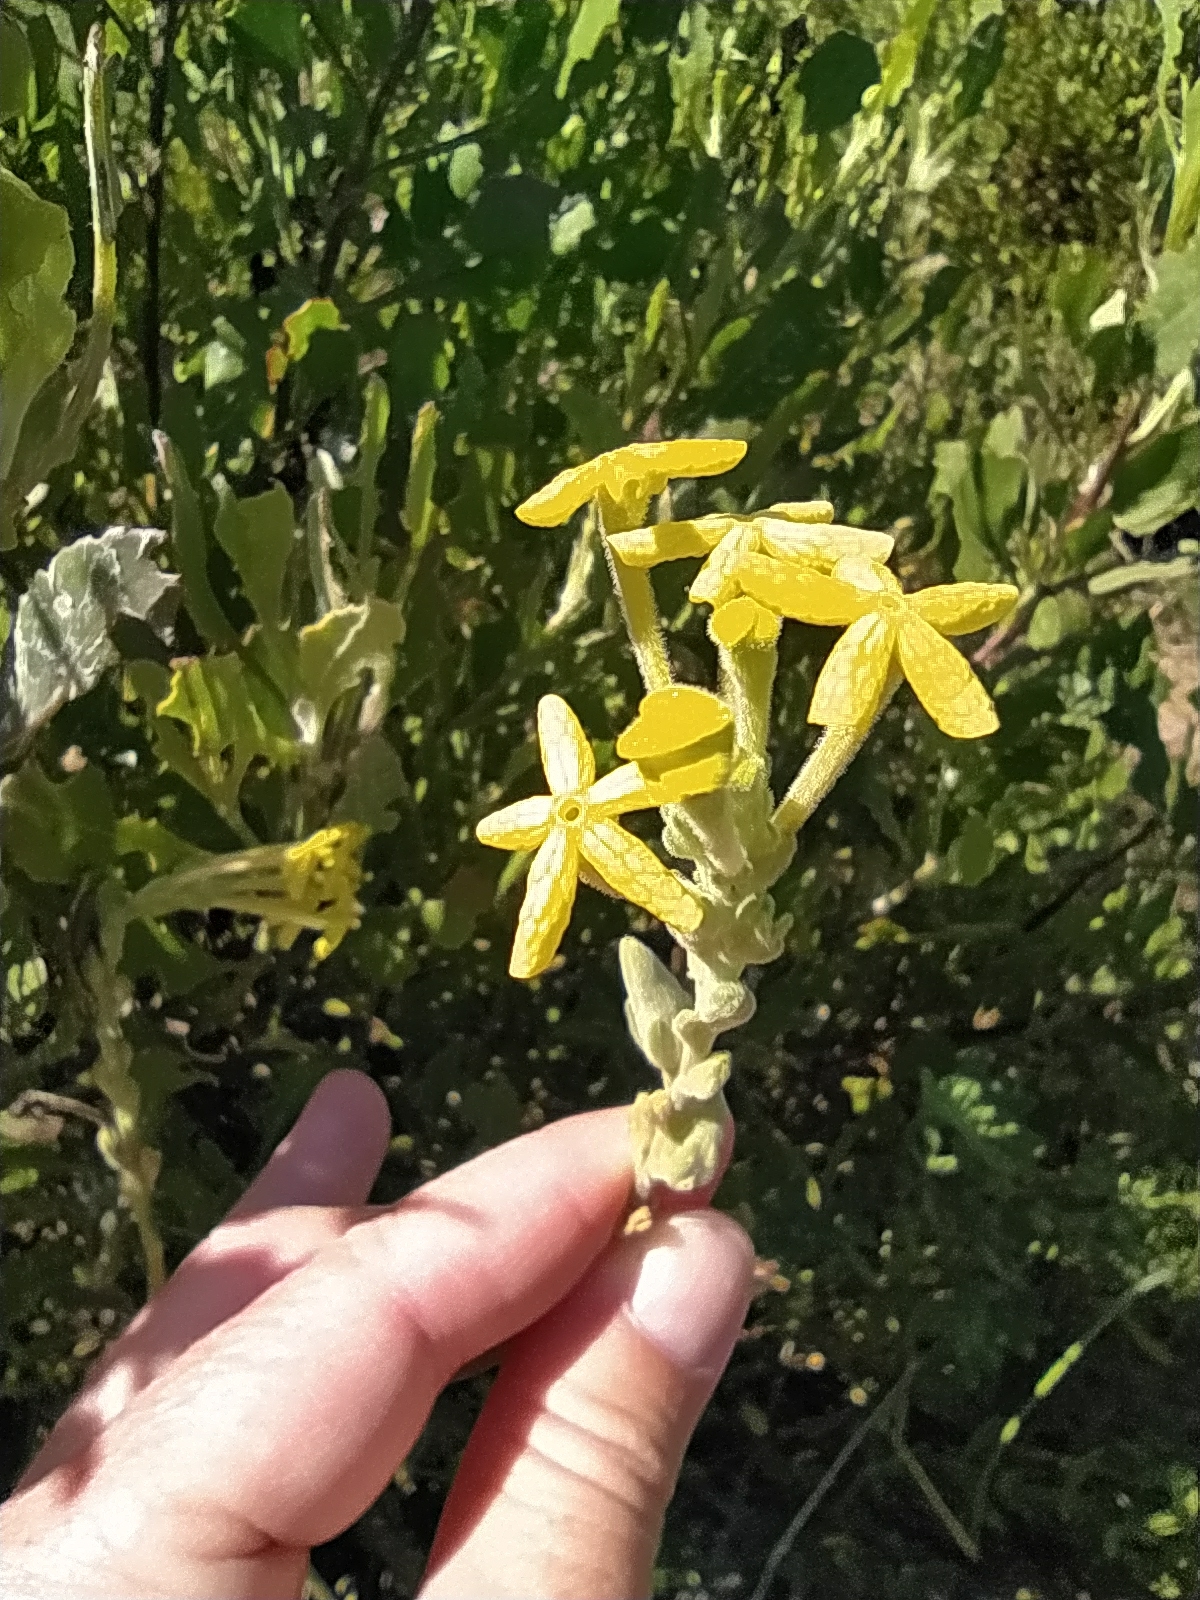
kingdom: Plantae
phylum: Tracheophyta
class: Magnoliopsida
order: Lamiales
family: Scrophulariaceae
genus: Lyperia
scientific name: Lyperia lychnidea
